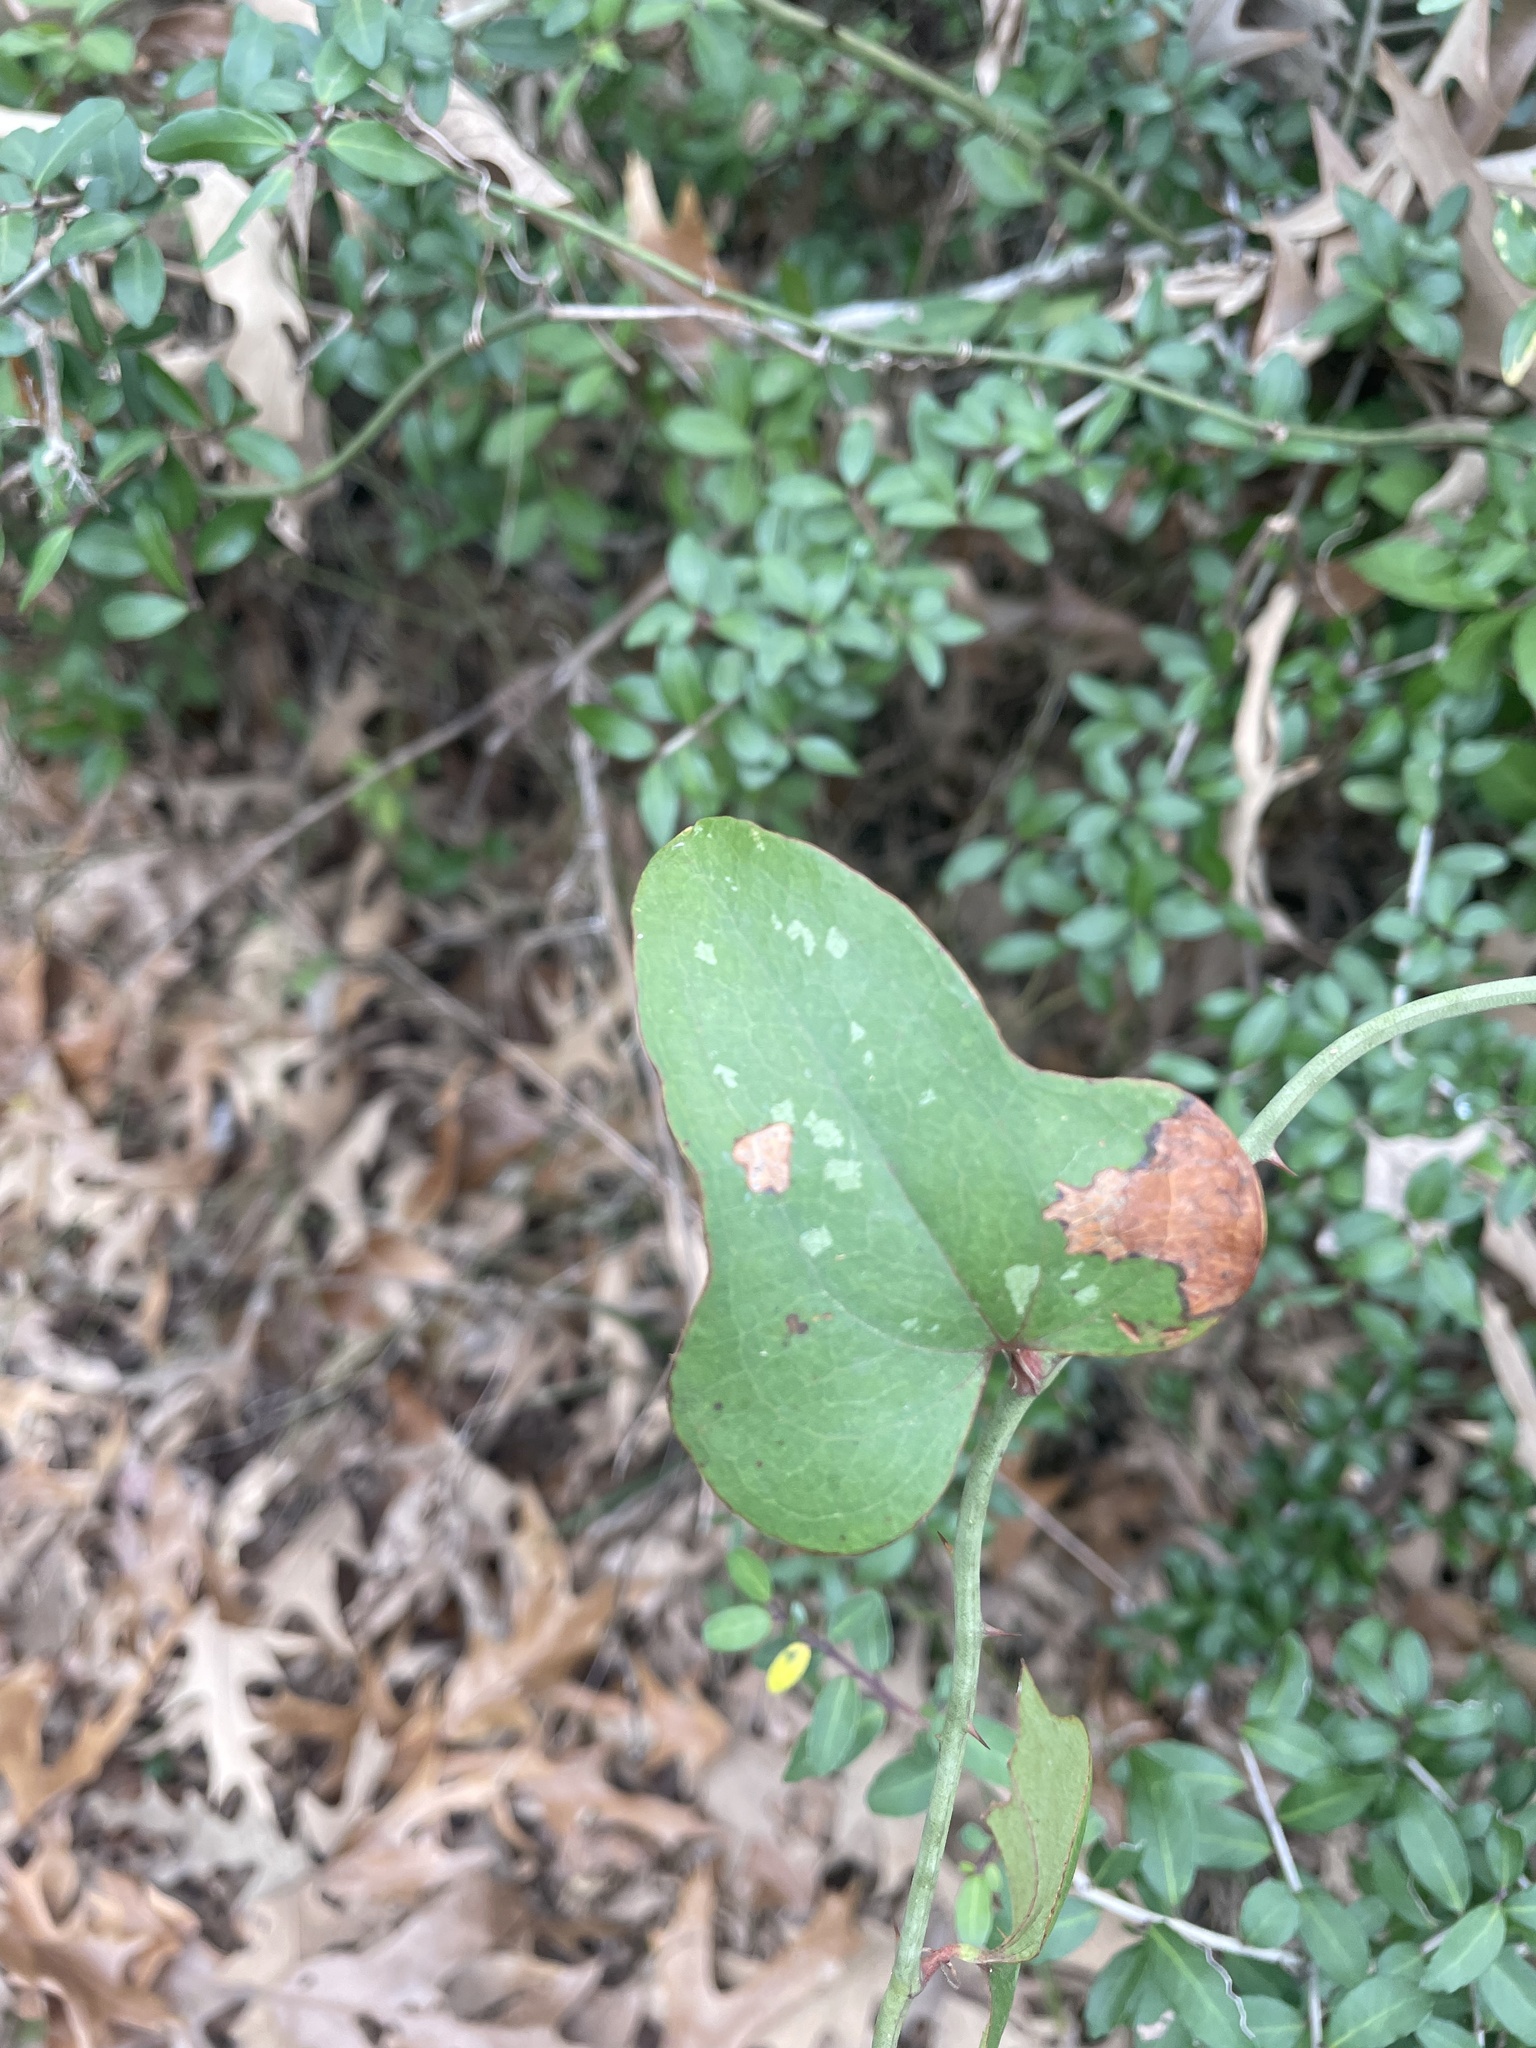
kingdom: Plantae
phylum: Tracheophyta
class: Liliopsida
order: Liliales
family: Smilacaceae
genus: Smilax
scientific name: Smilax bona-nox
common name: Catbrier
